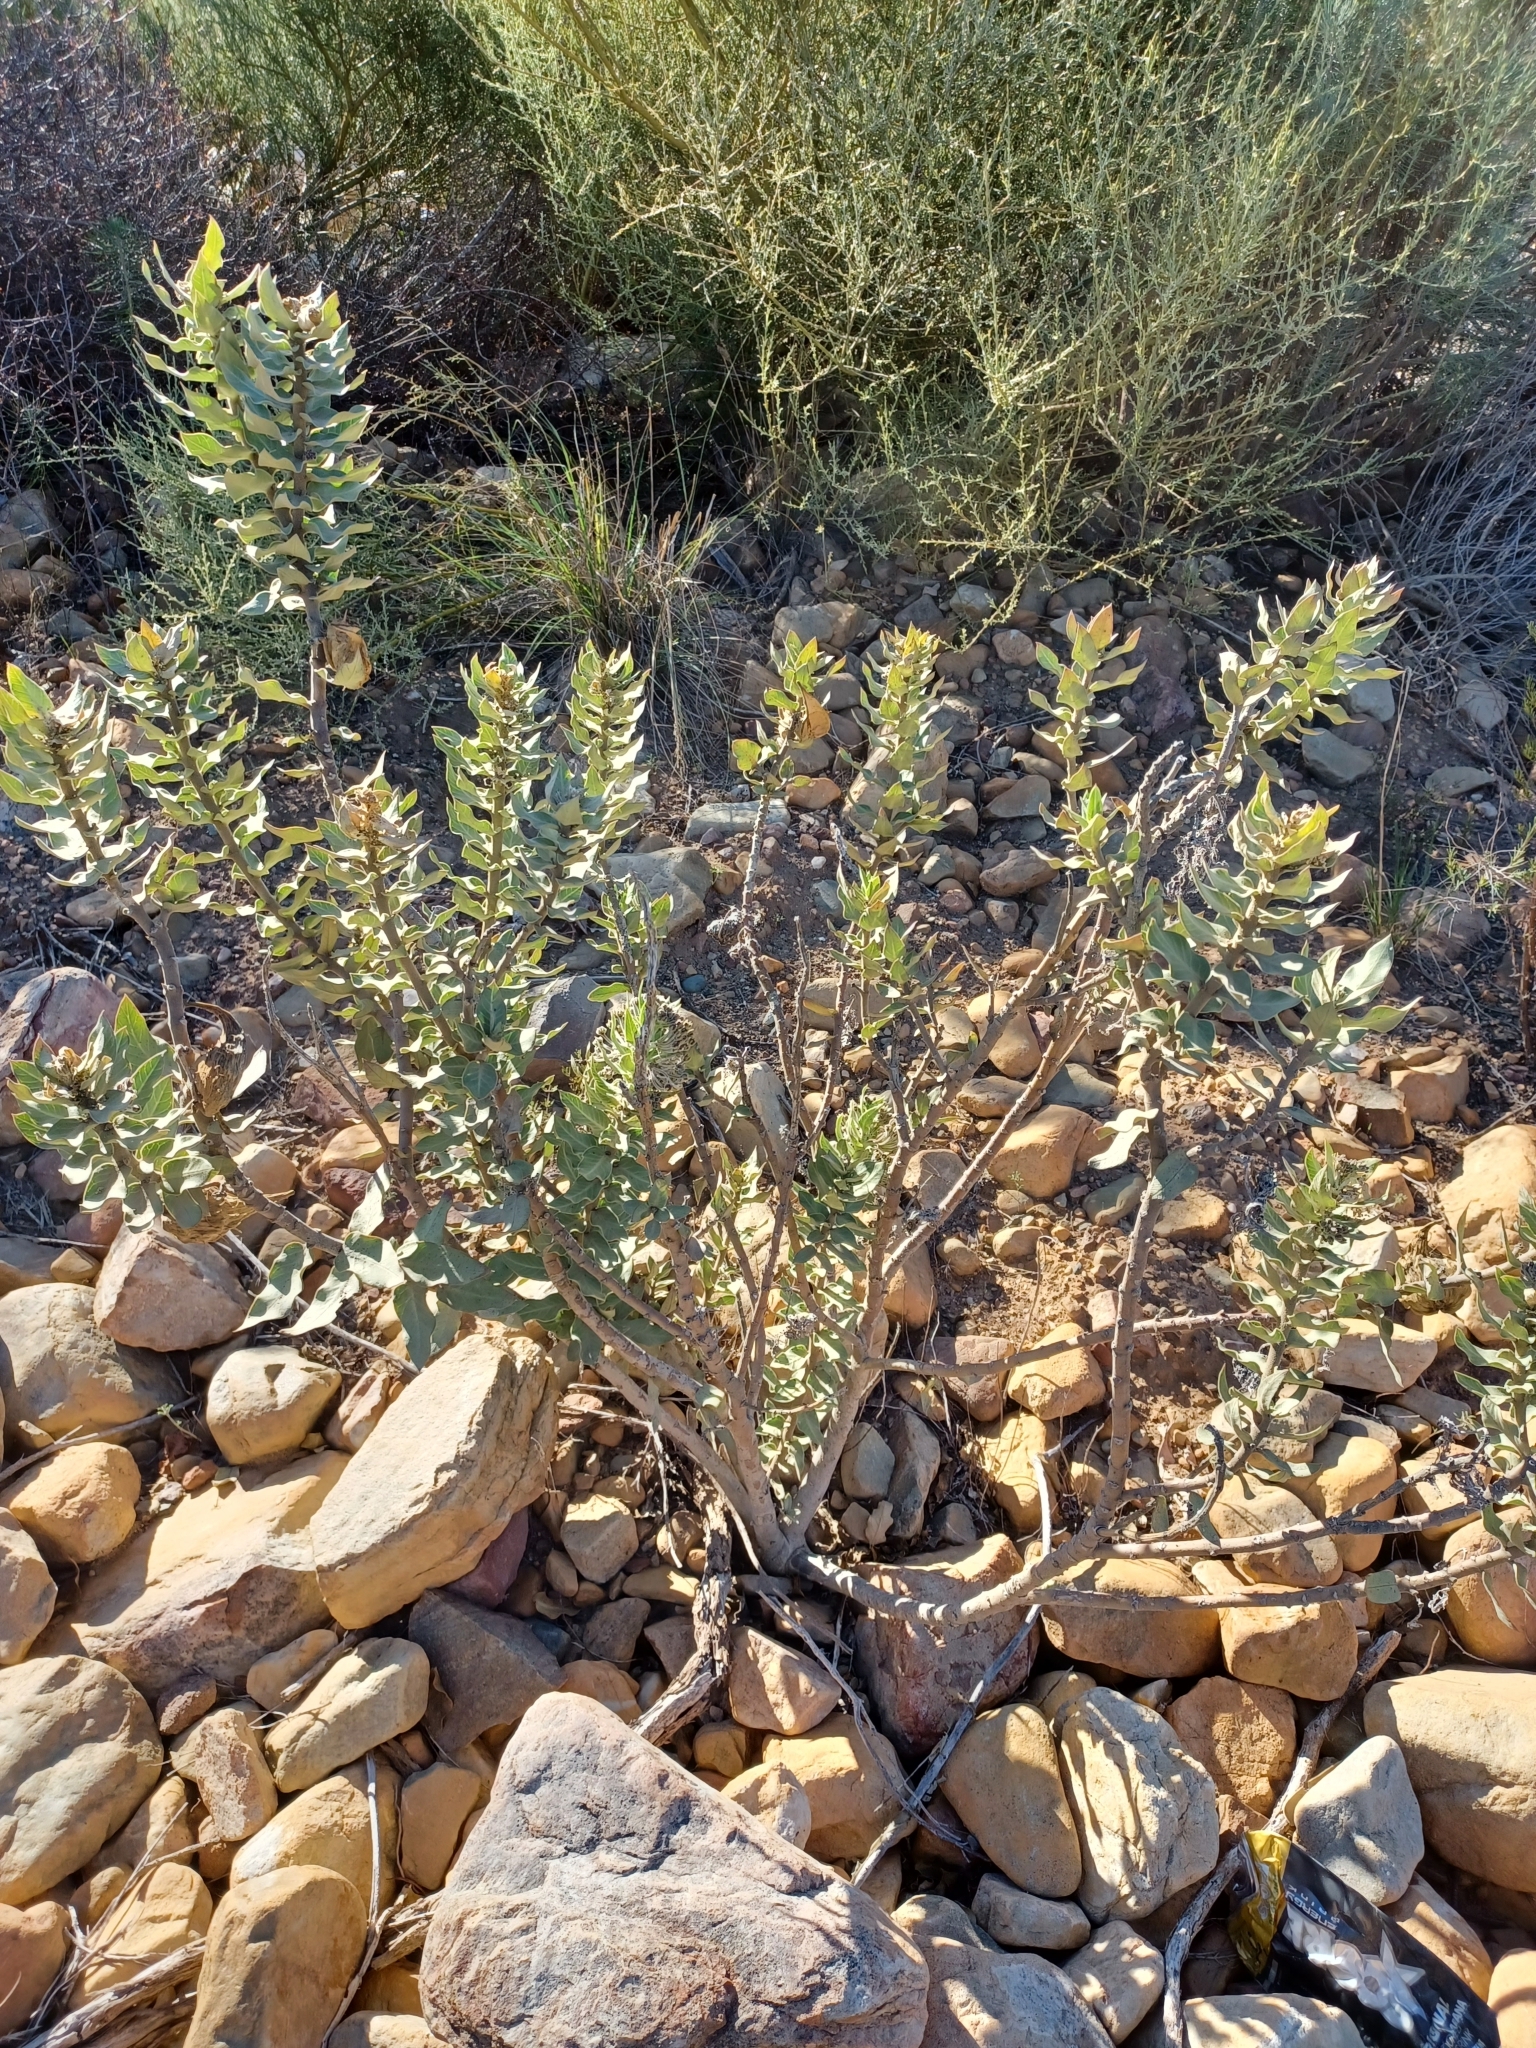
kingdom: Plantae
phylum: Tracheophyta
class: Magnoliopsida
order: Gentianales
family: Apocynaceae
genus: Gomphocarpus
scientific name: Gomphocarpus cancellatus
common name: Wild cotton
